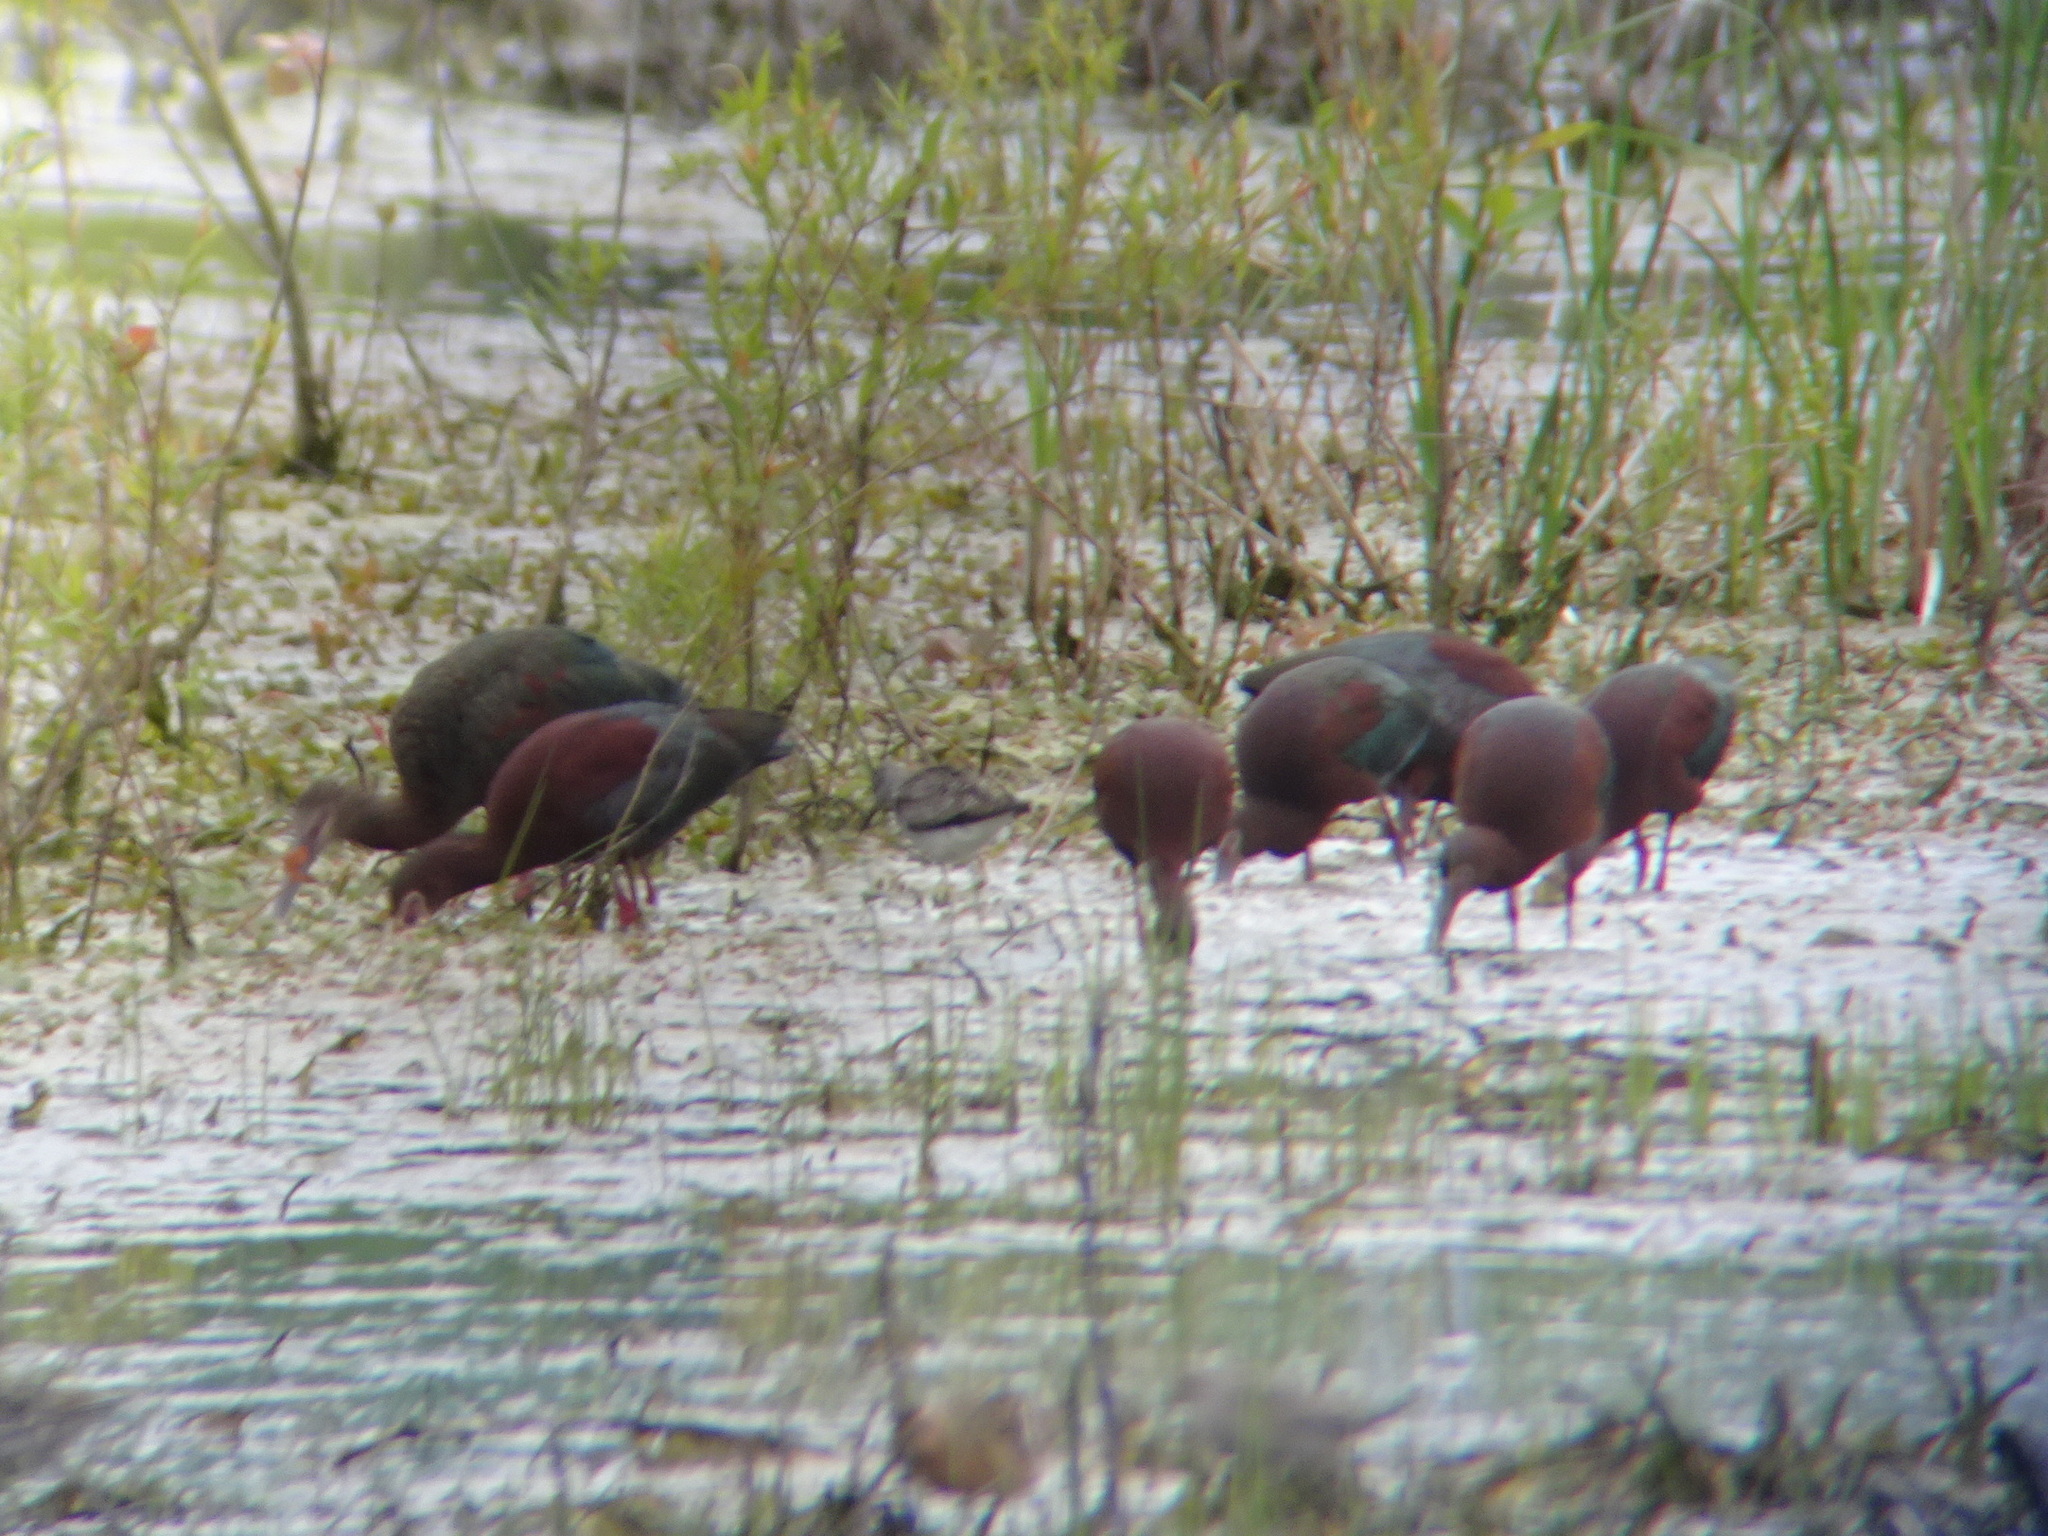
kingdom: Animalia
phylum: Chordata
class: Aves
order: Pelecaniformes
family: Threskiornithidae
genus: Plegadis
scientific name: Plegadis chihi
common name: White-faced ibis
